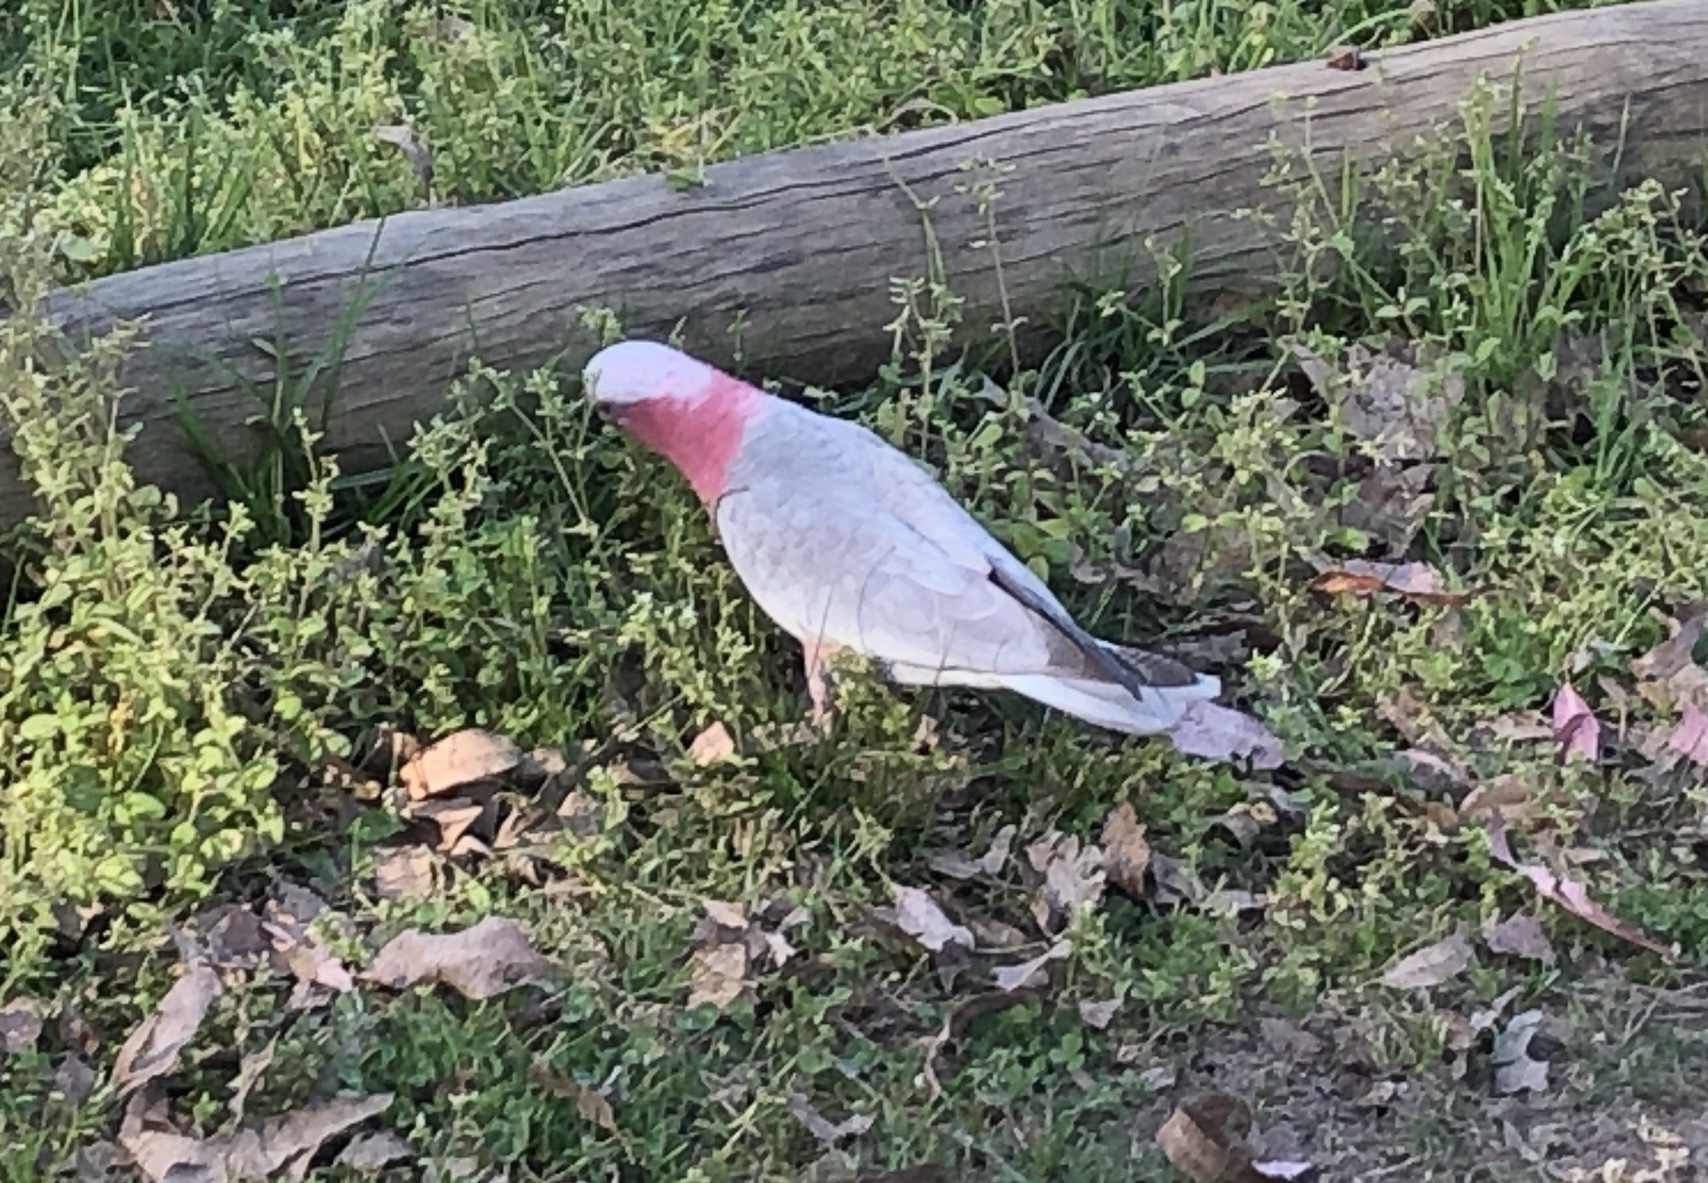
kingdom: Animalia
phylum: Chordata
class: Aves
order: Psittaciformes
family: Psittacidae
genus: Eolophus
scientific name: Eolophus roseicapilla
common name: Galah
